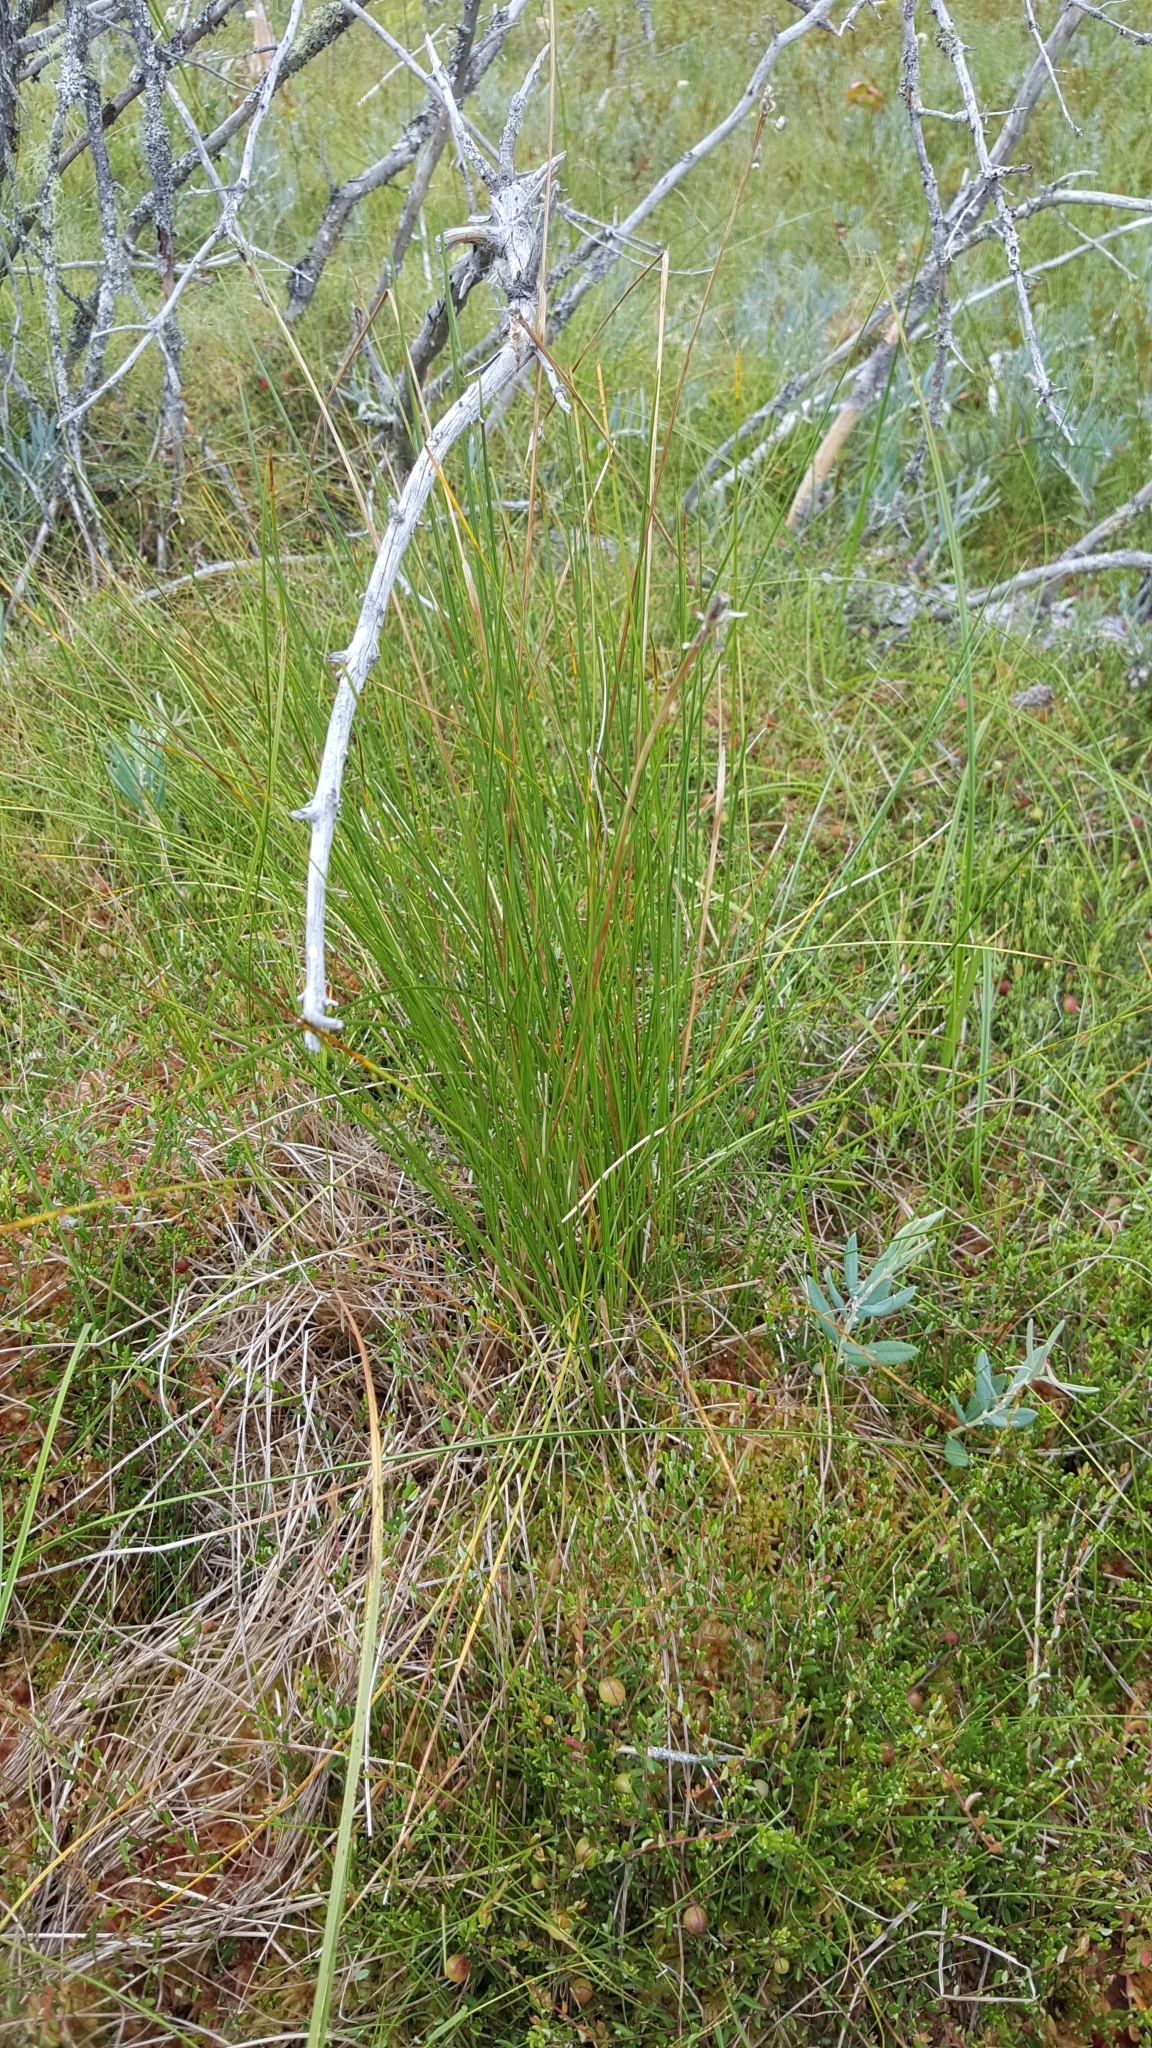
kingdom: Plantae
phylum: Tracheophyta
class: Liliopsida
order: Poales
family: Cyperaceae
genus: Eriophorum
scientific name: Eriophorum vaginatum
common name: Hare's-tail cottongrass
